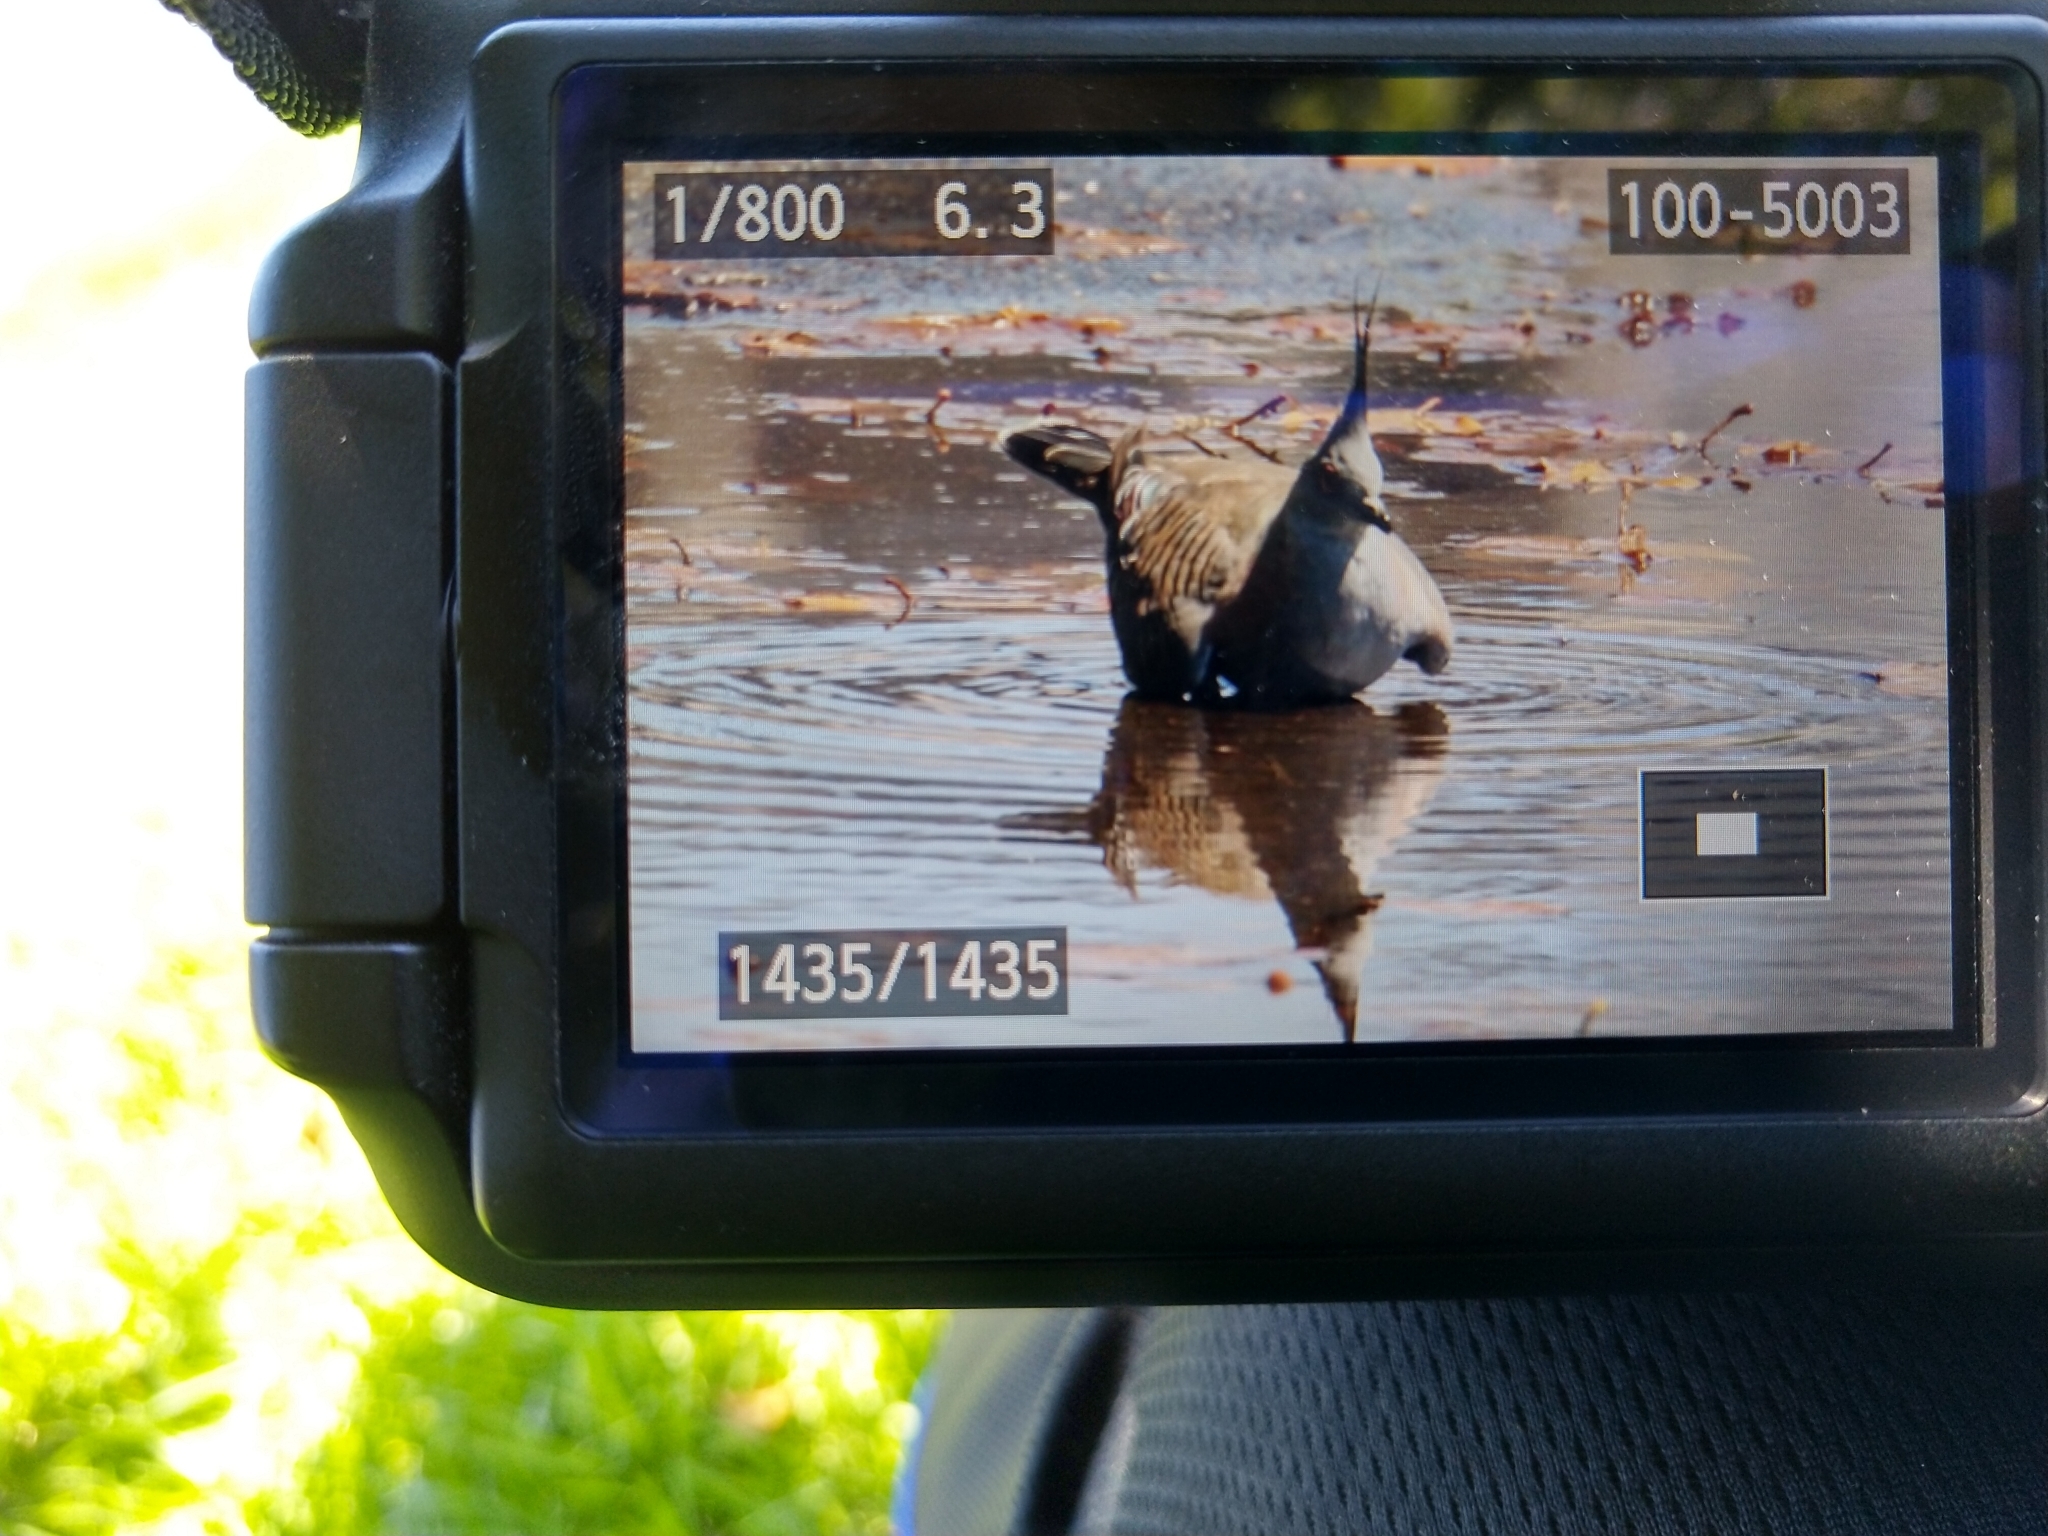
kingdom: Animalia
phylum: Chordata
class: Aves
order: Columbiformes
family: Columbidae
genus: Ocyphaps
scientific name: Ocyphaps lophotes
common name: Crested pigeon
